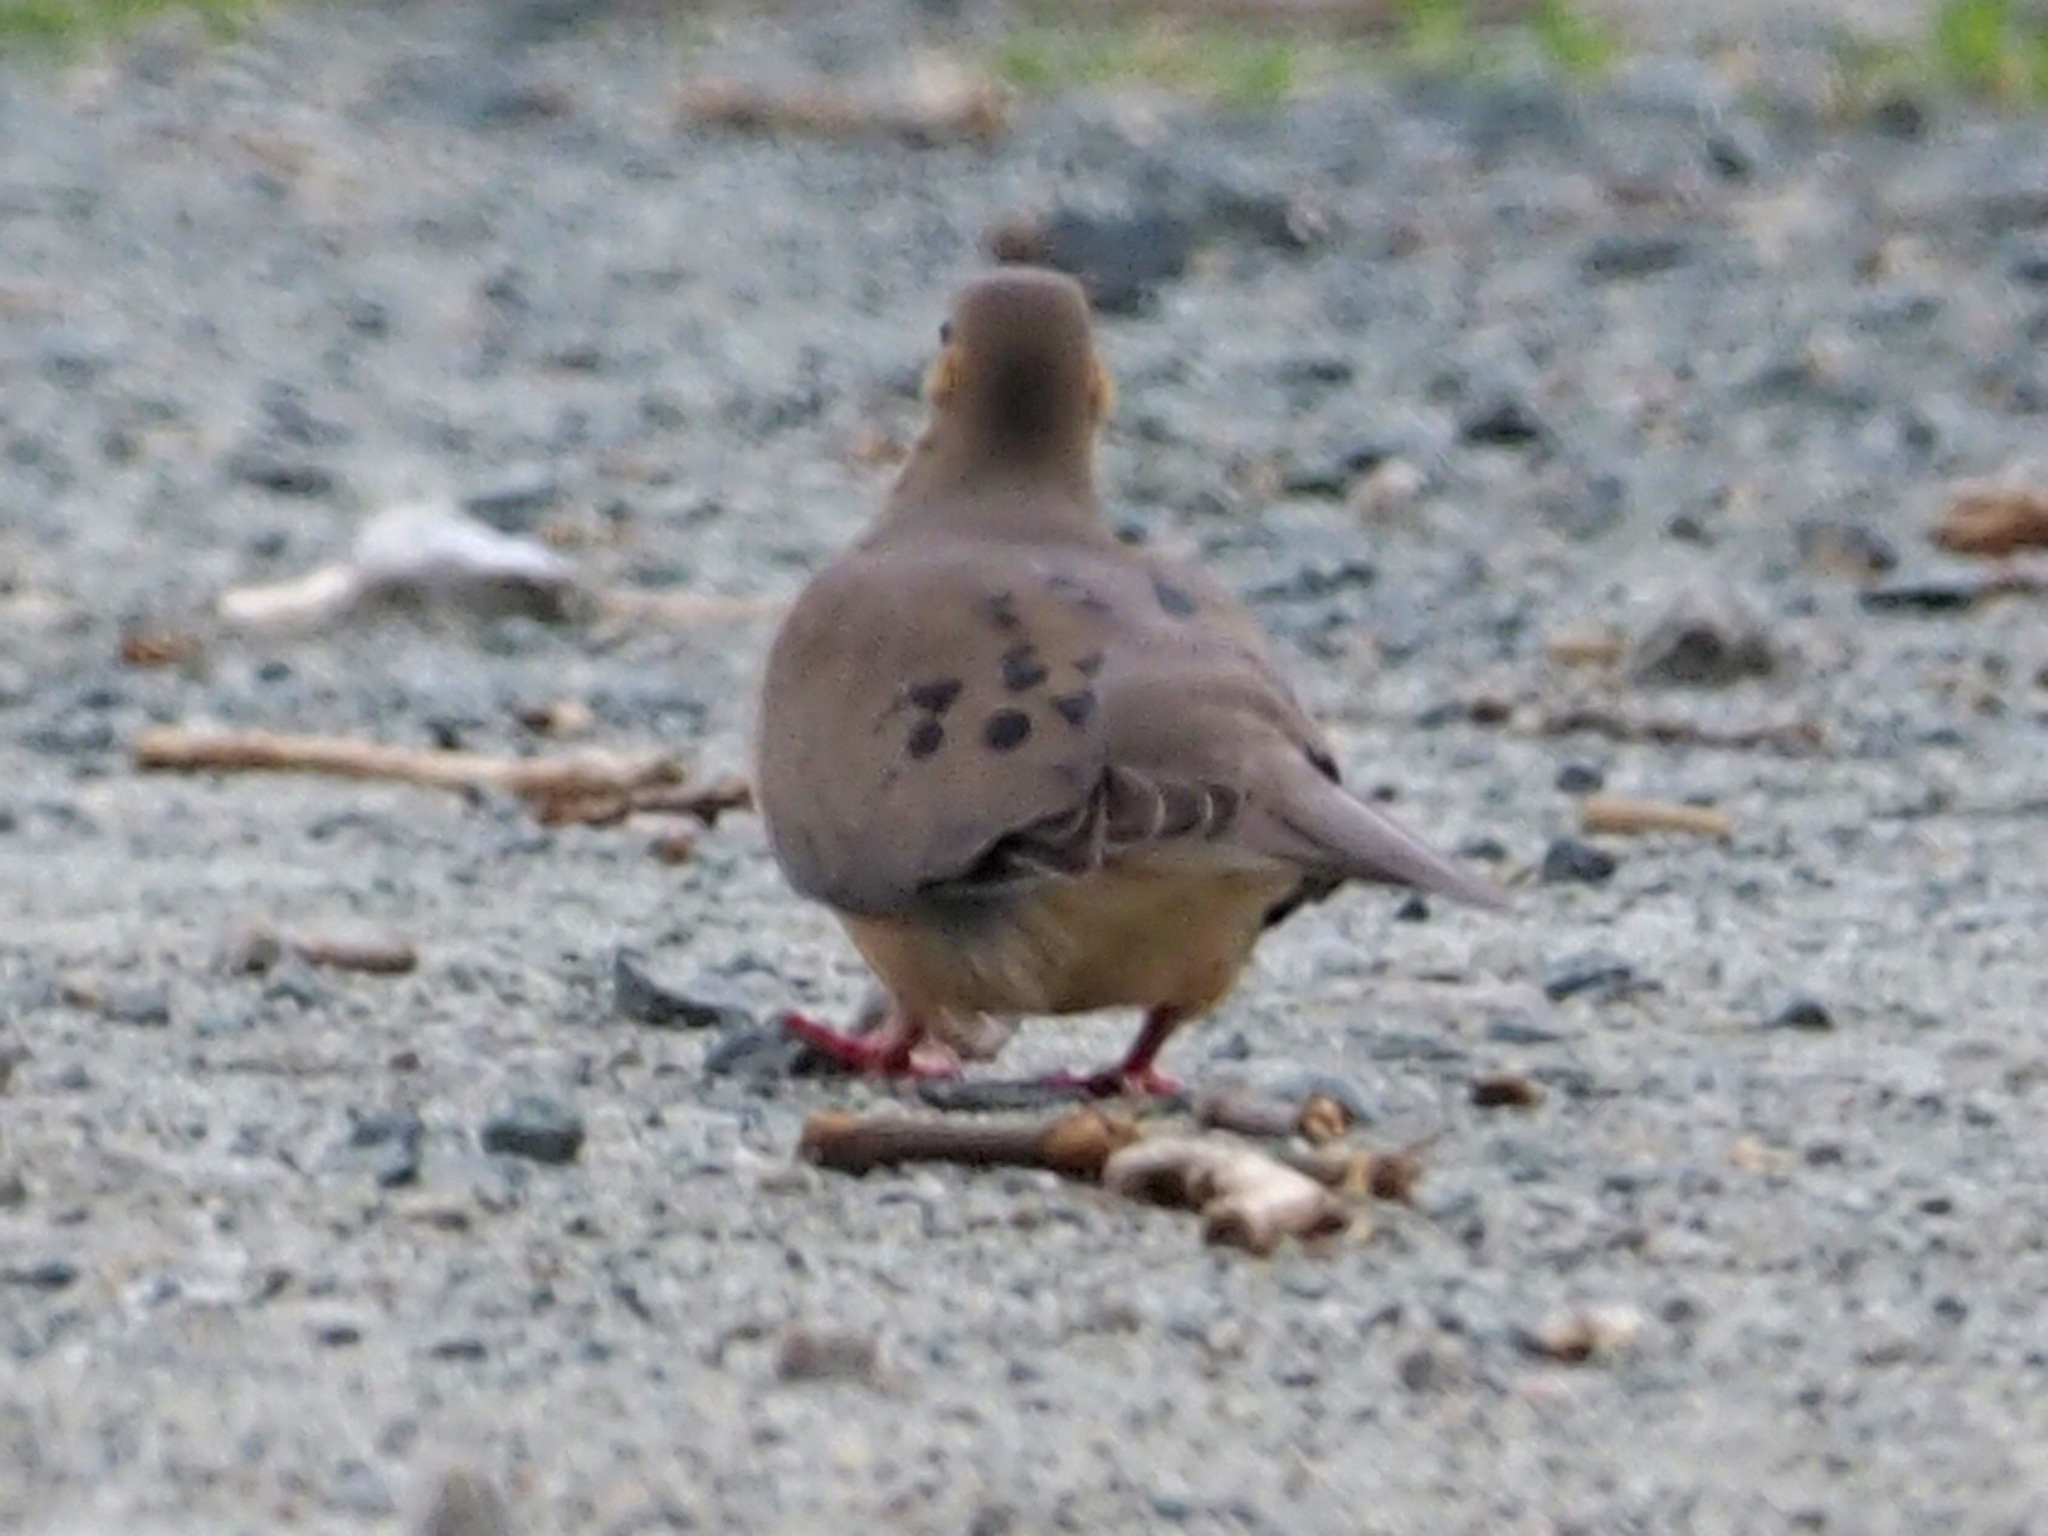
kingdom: Animalia
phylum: Chordata
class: Aves
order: Columbiformes
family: Columbidae
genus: Zenaida
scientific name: Zenaida macroura
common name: Mourning dove
